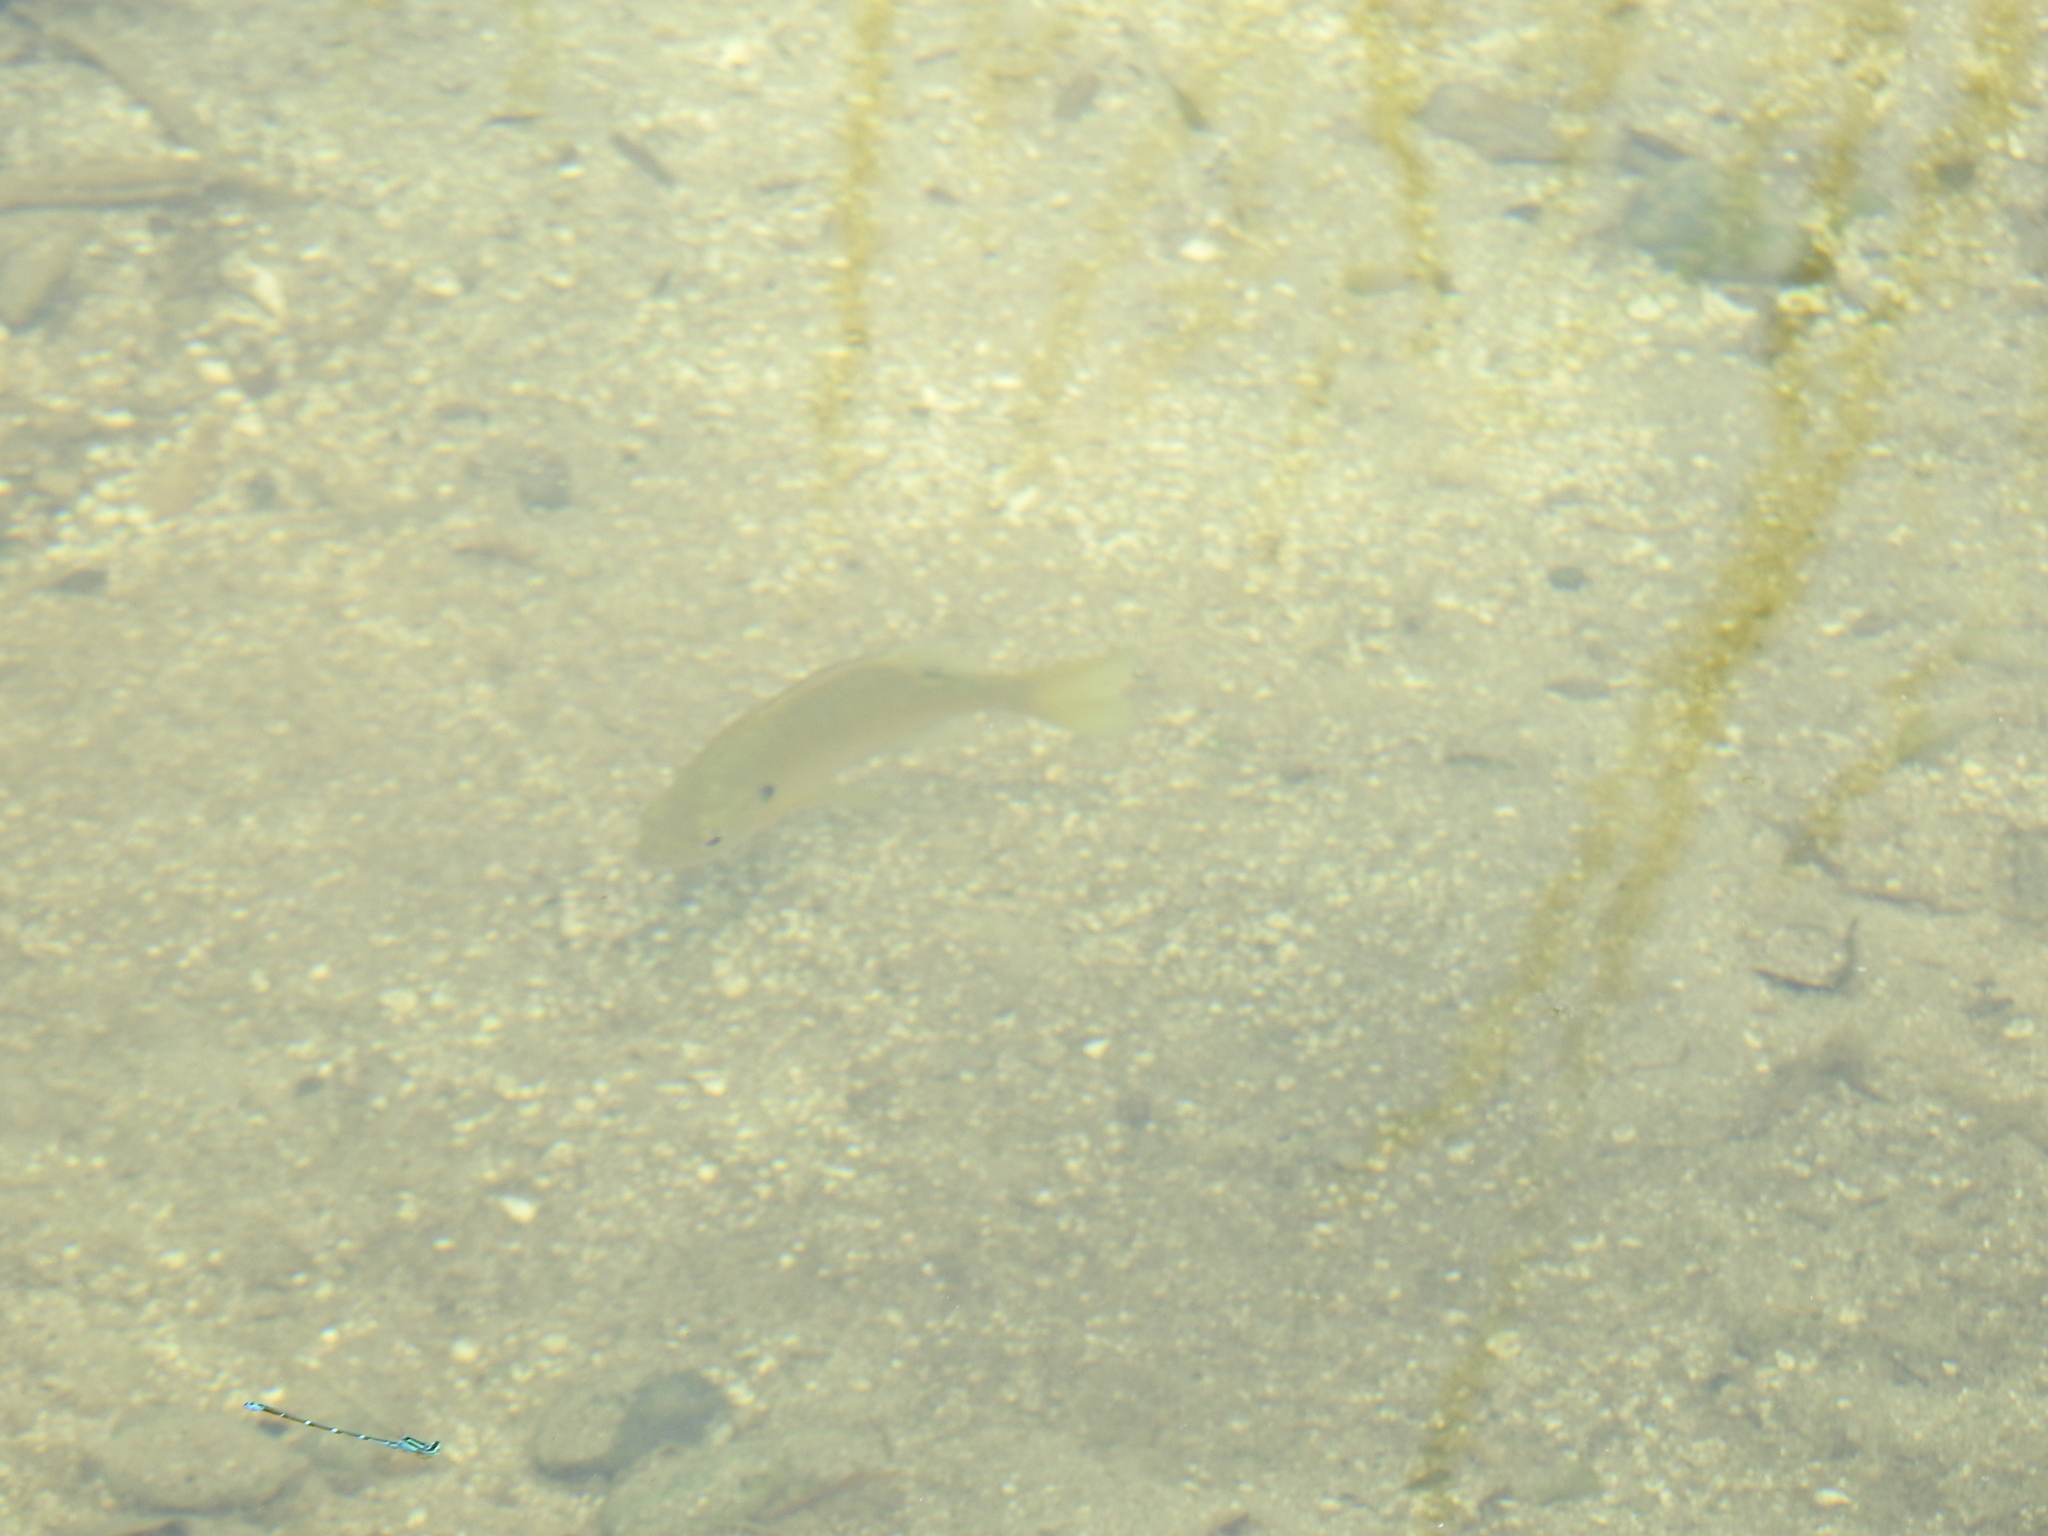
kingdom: Animalia
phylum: Chordata
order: Perciformes
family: Centrarchidae
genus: Lepomis
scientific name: Lepomis macrochirus
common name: Bluegill
